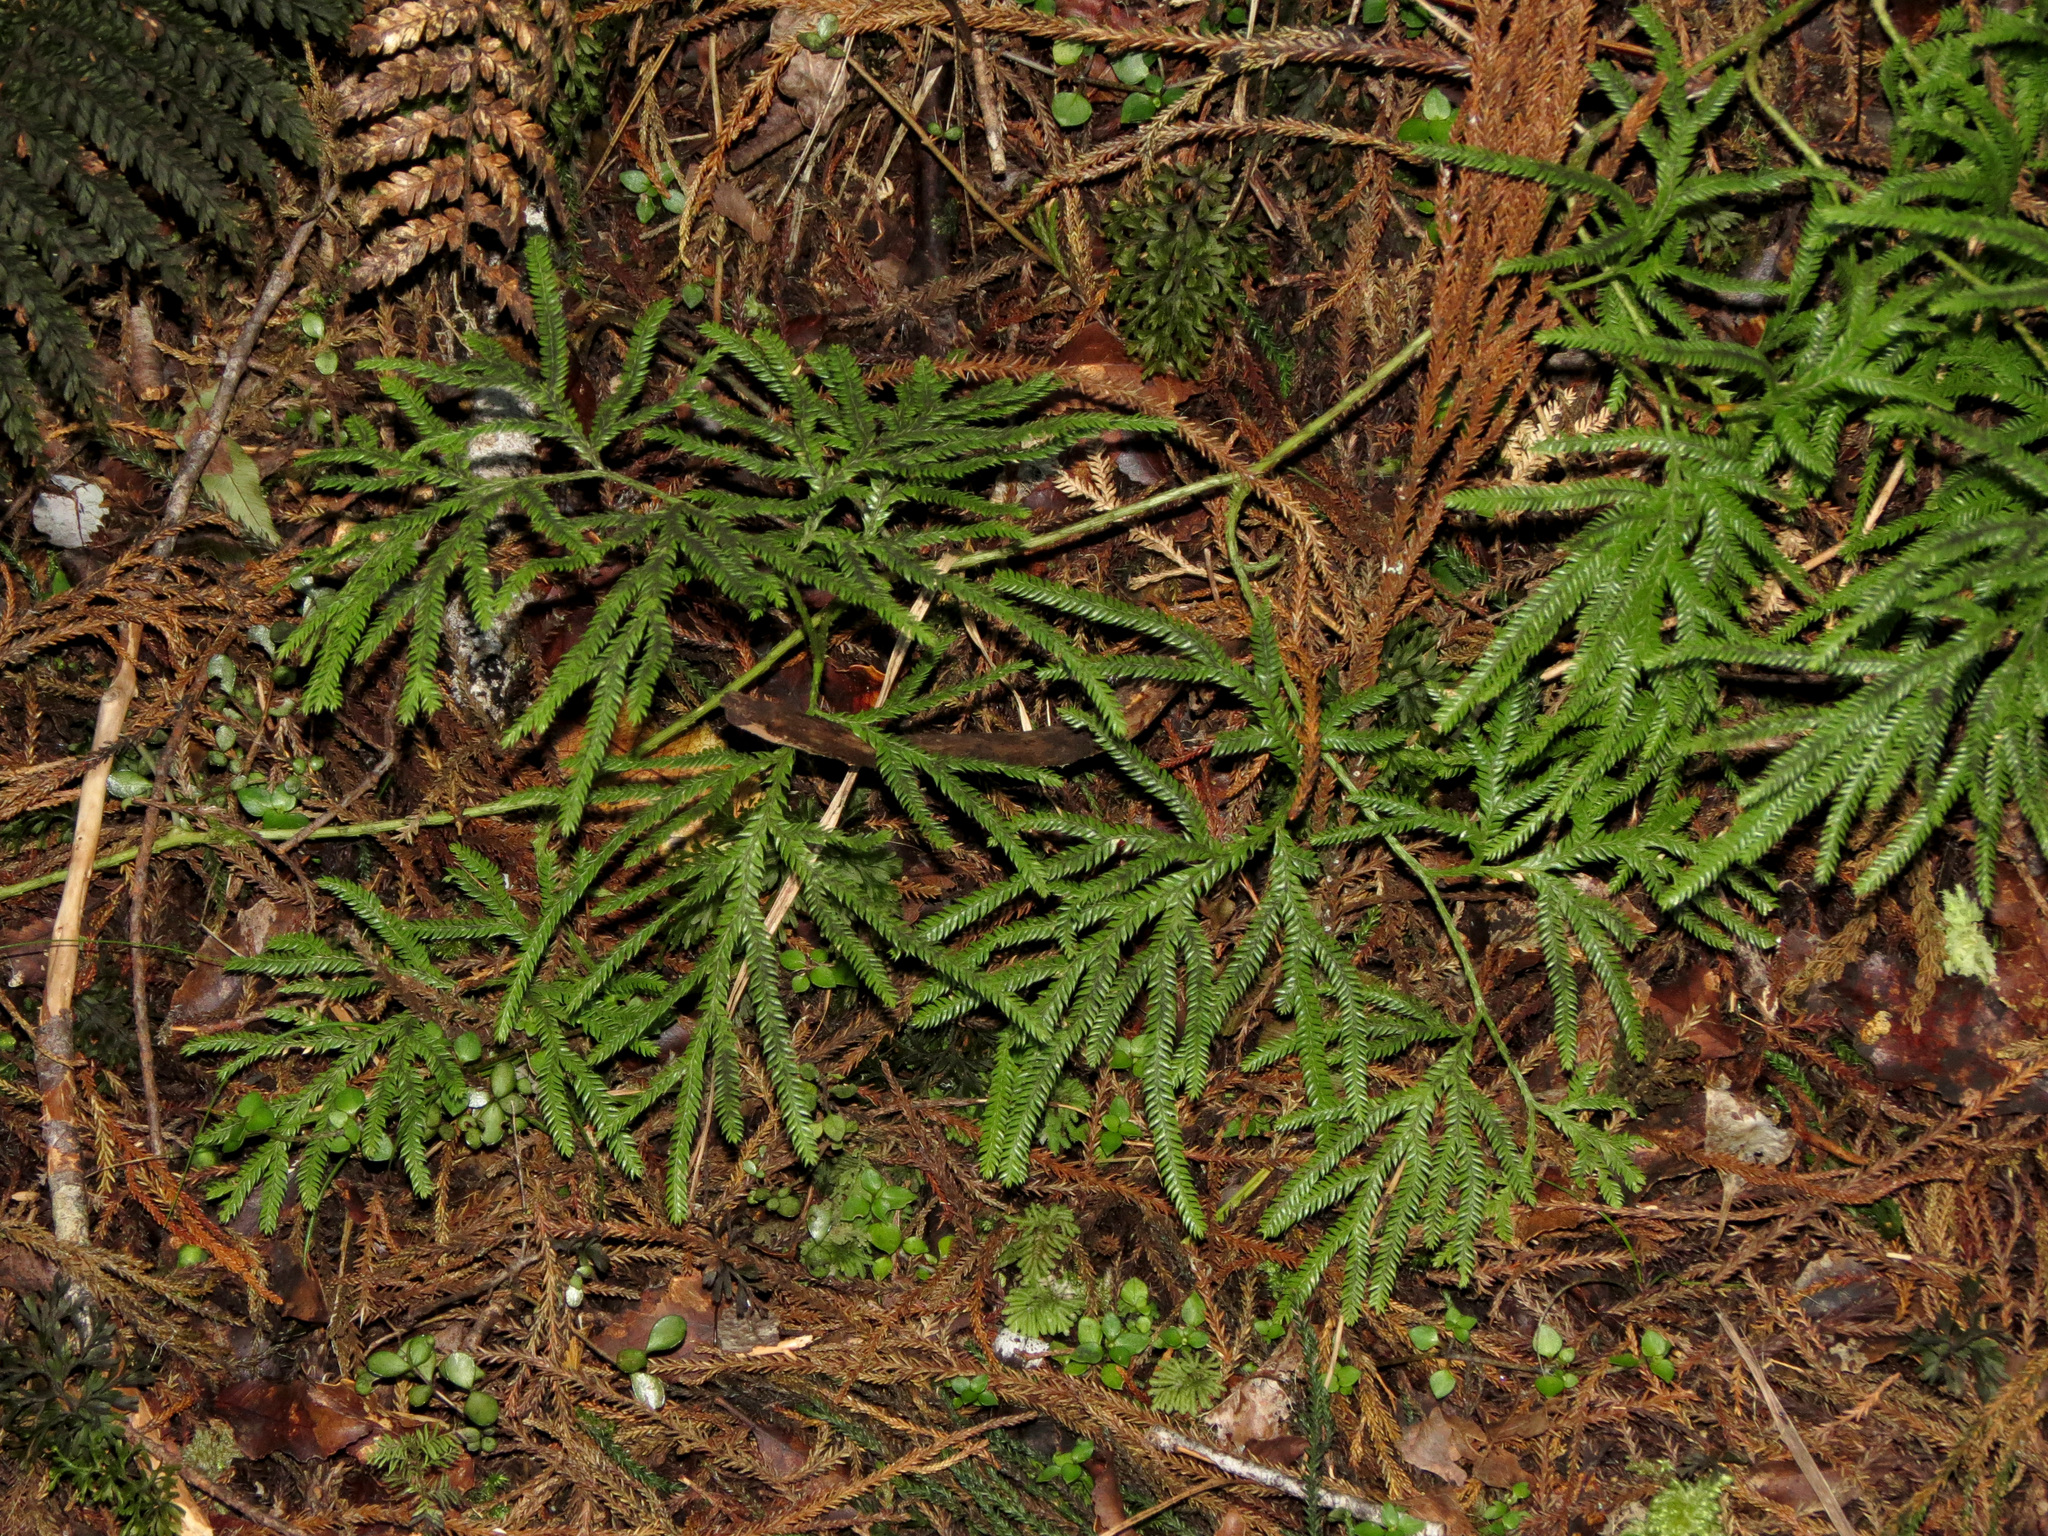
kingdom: Plantae
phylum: Tracheophyta
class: Lycopodiopsida
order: Lycopodiales
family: Lycopodiaceae
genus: Lycopodium
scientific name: Lycopodium volubile
